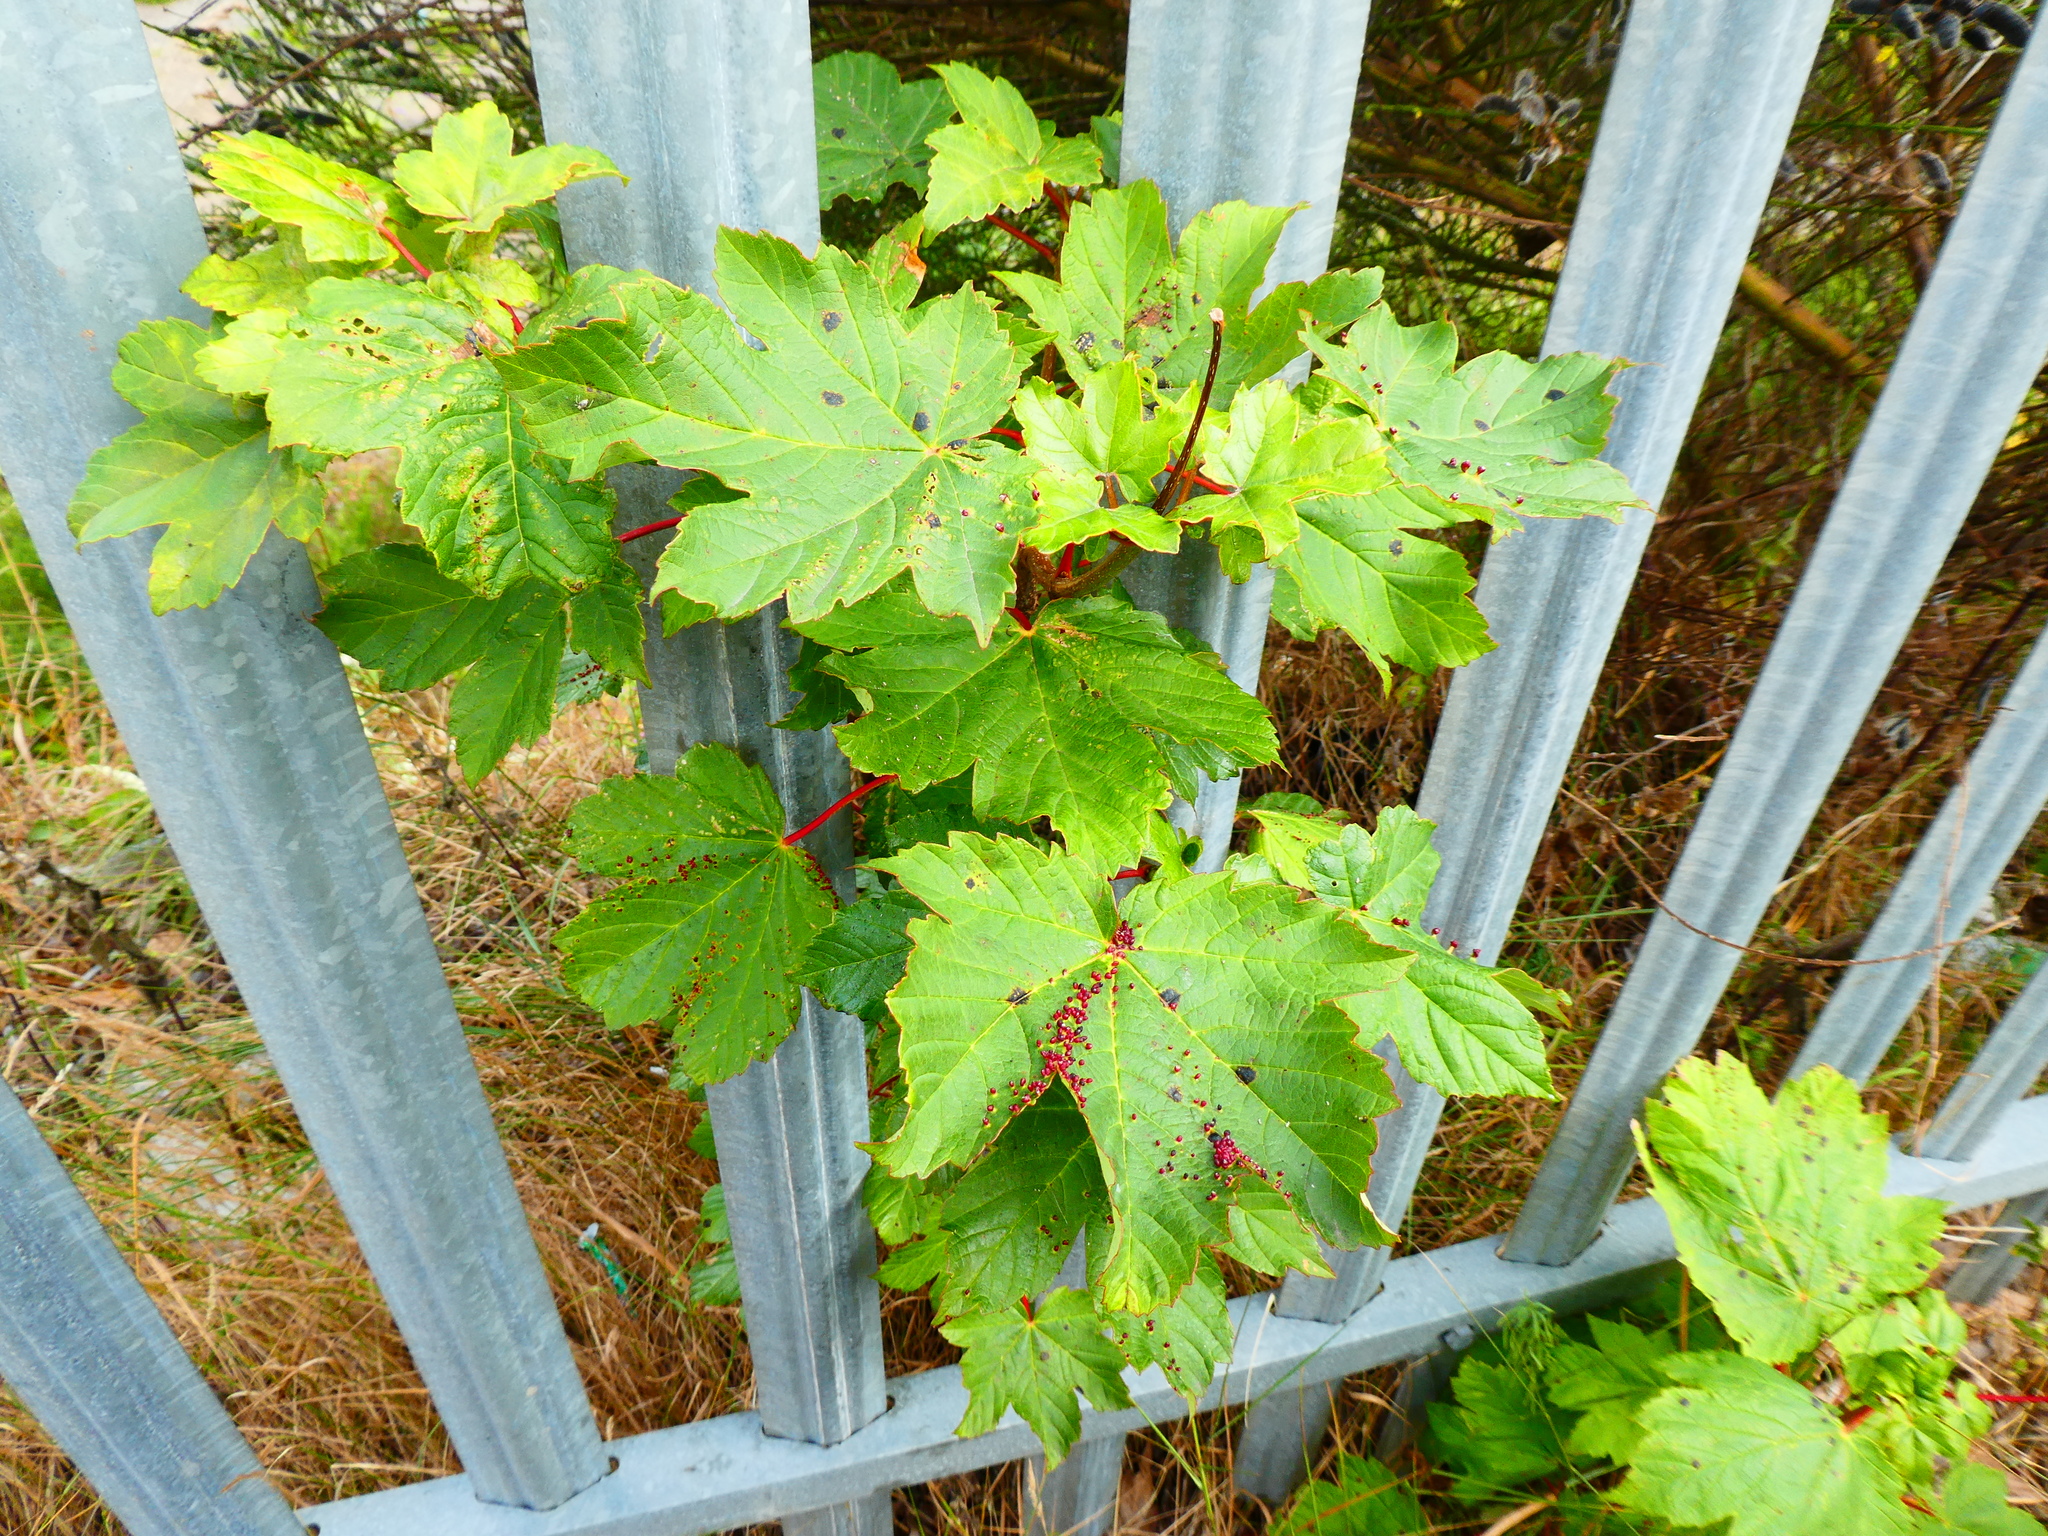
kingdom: Plantae
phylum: Tracheophyta
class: Magnoliopsida
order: Sapindales
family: Sapindaceae
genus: Acer
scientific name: Acer pseudoplatanus
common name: Sycamore
